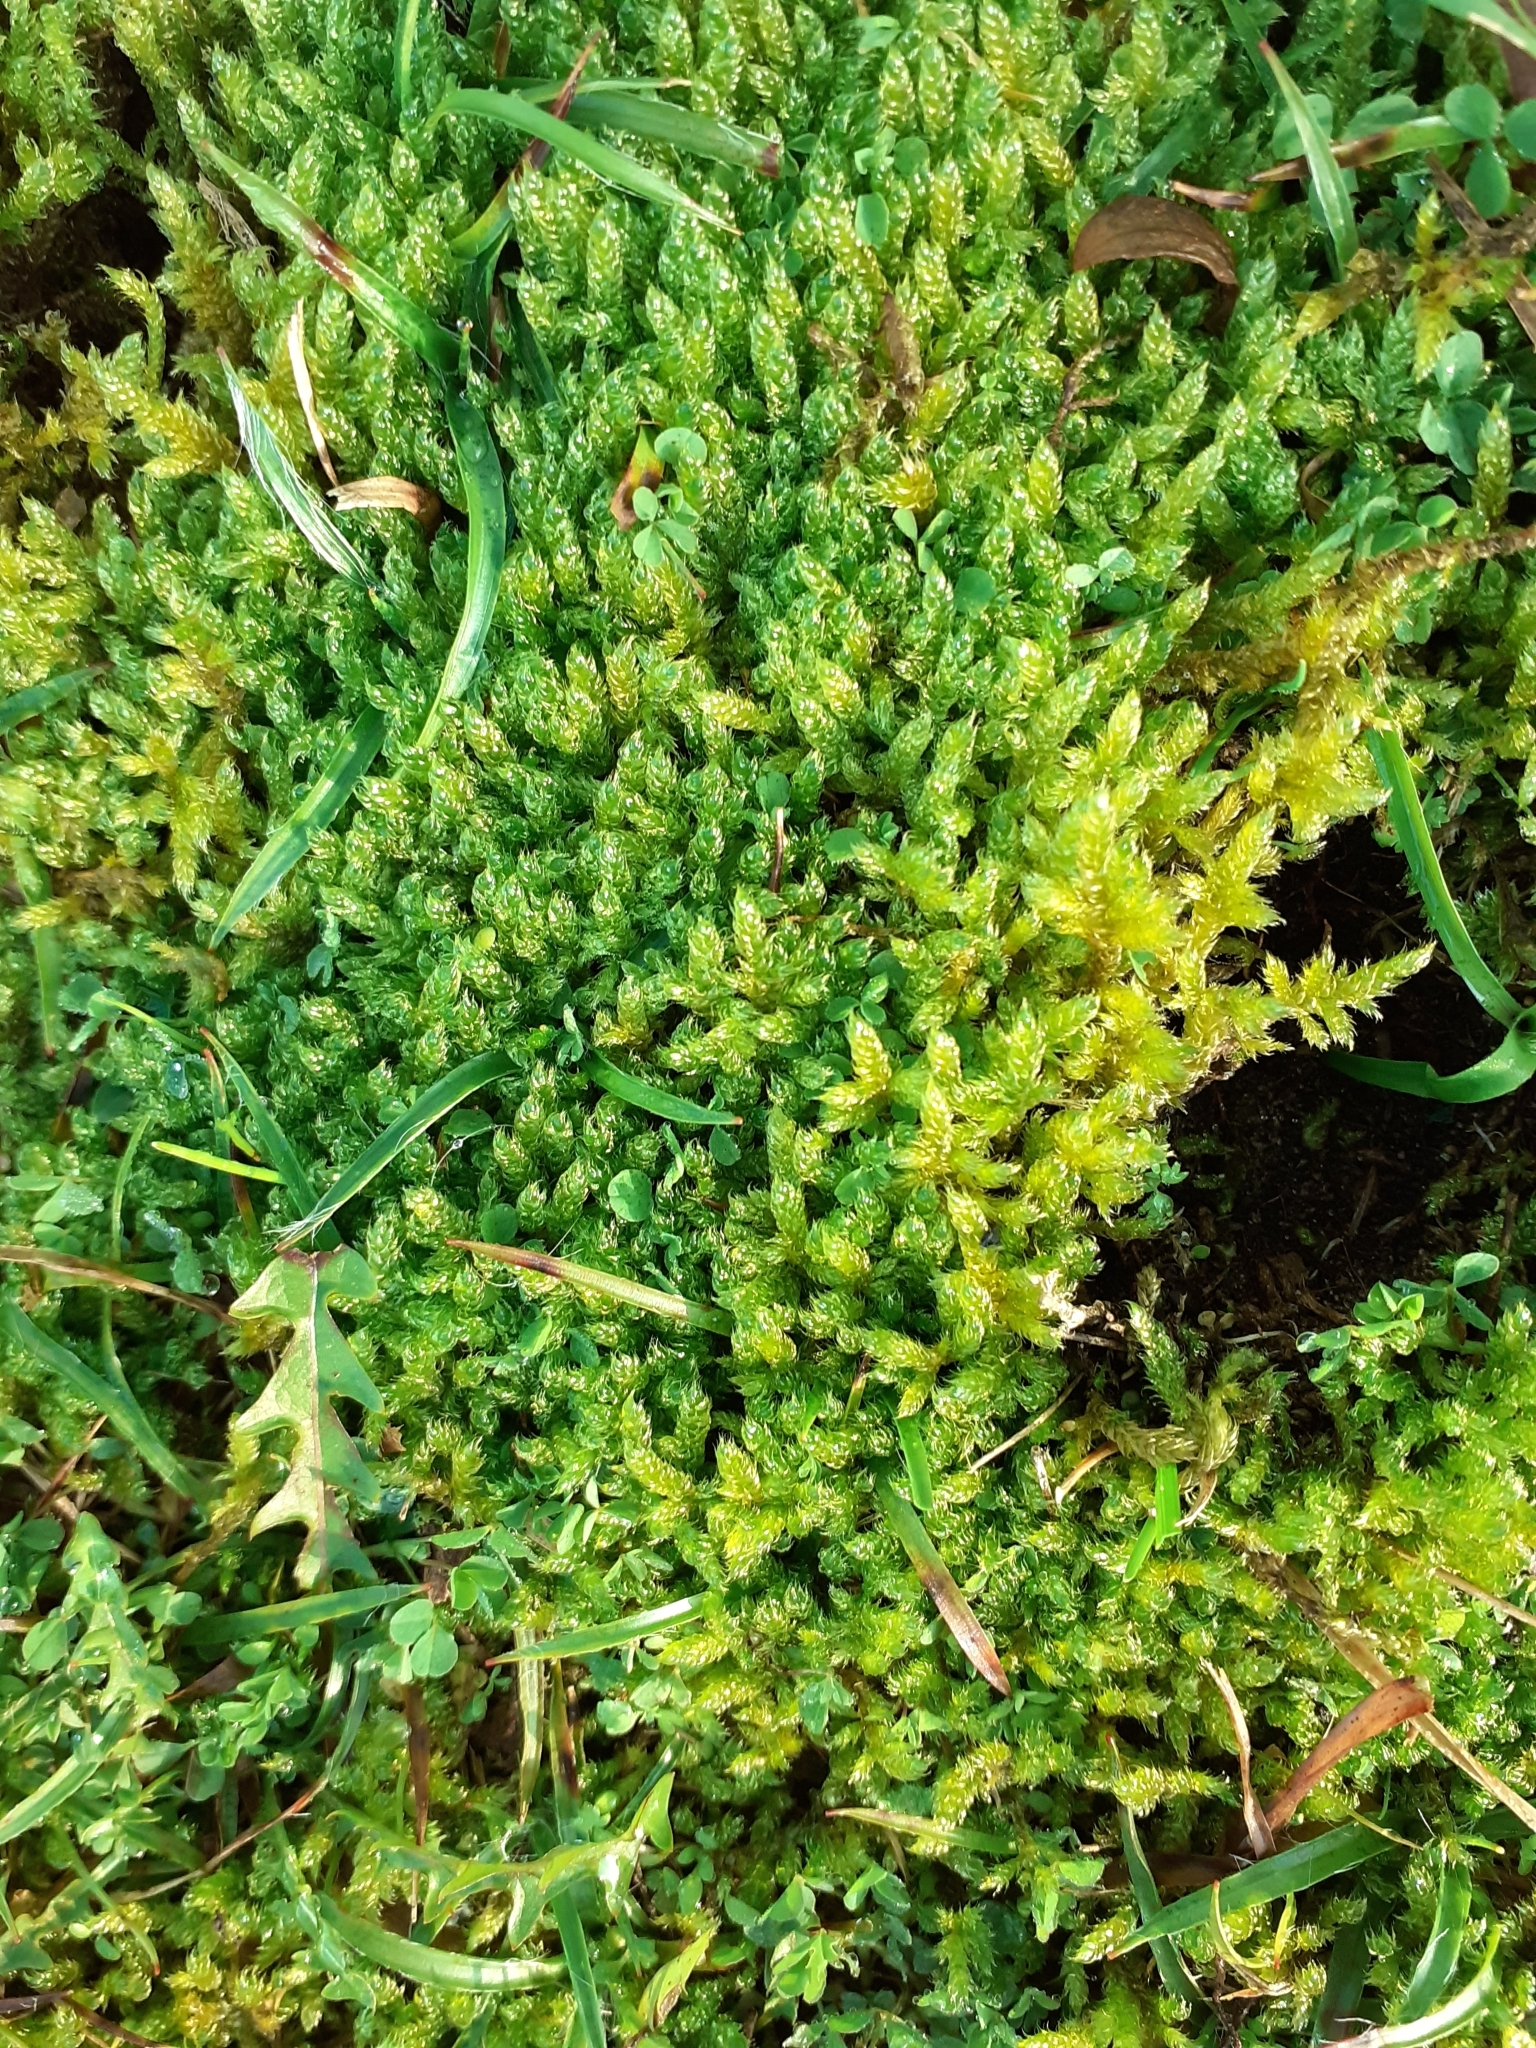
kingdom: Plantae
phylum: Bryophyta
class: Bryopsida
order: Hypnales
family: Hypnaceae
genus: Hypnum
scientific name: Hypnum cupressiforme
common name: Cypress-leaved plait-moss
